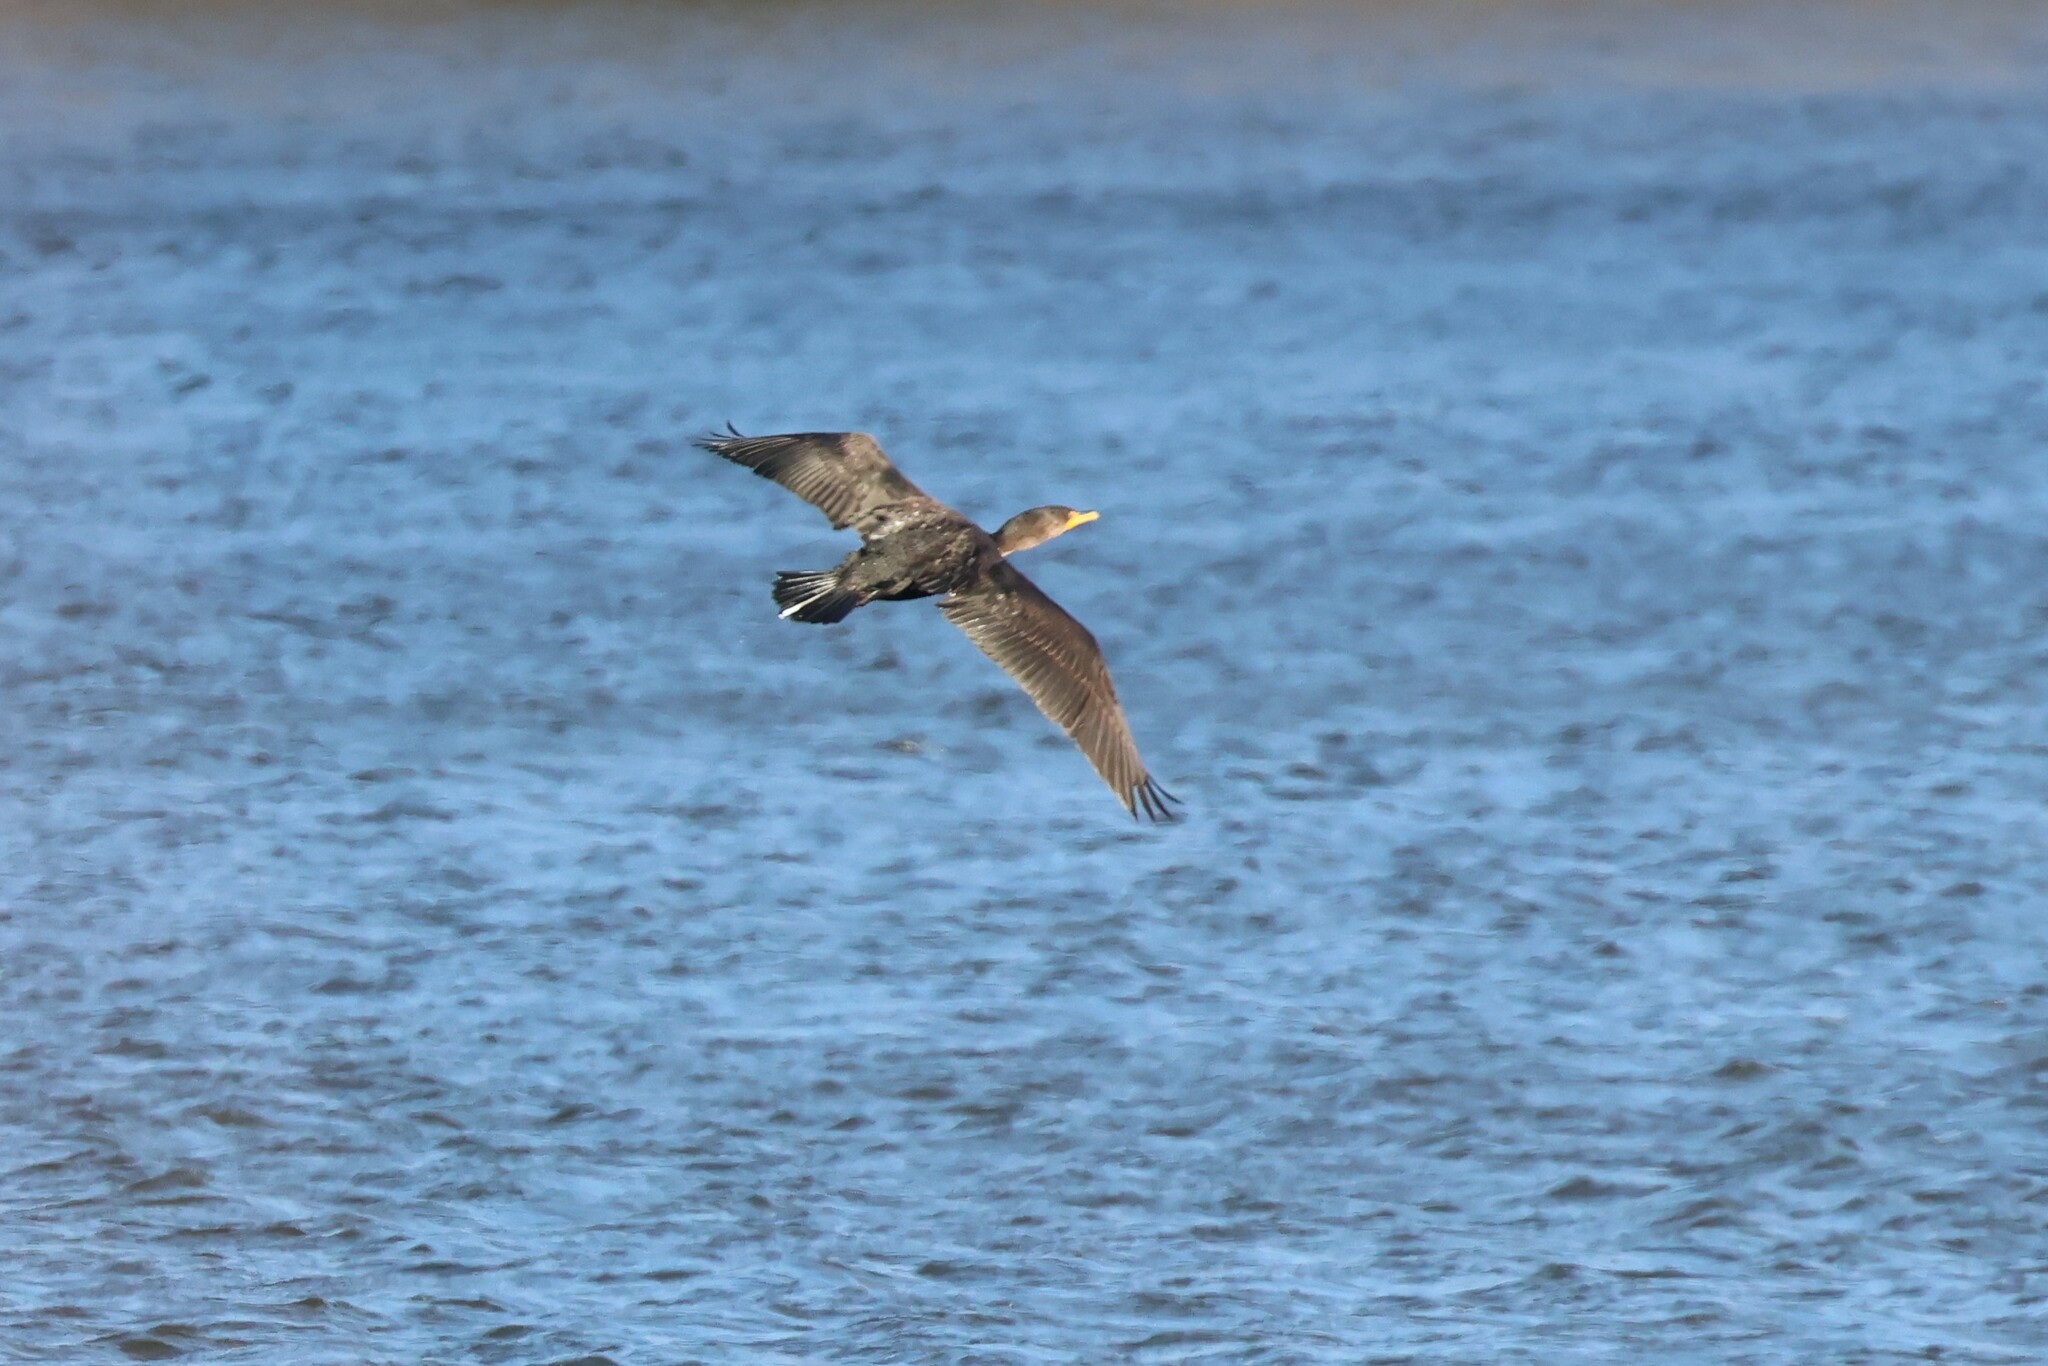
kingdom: Animalia
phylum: Chordata
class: Aves
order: Suliformes
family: Phalacrocoracidae
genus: Phalacrocorax
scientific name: Phalacrocorax auritus
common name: Double-crested cormorant
